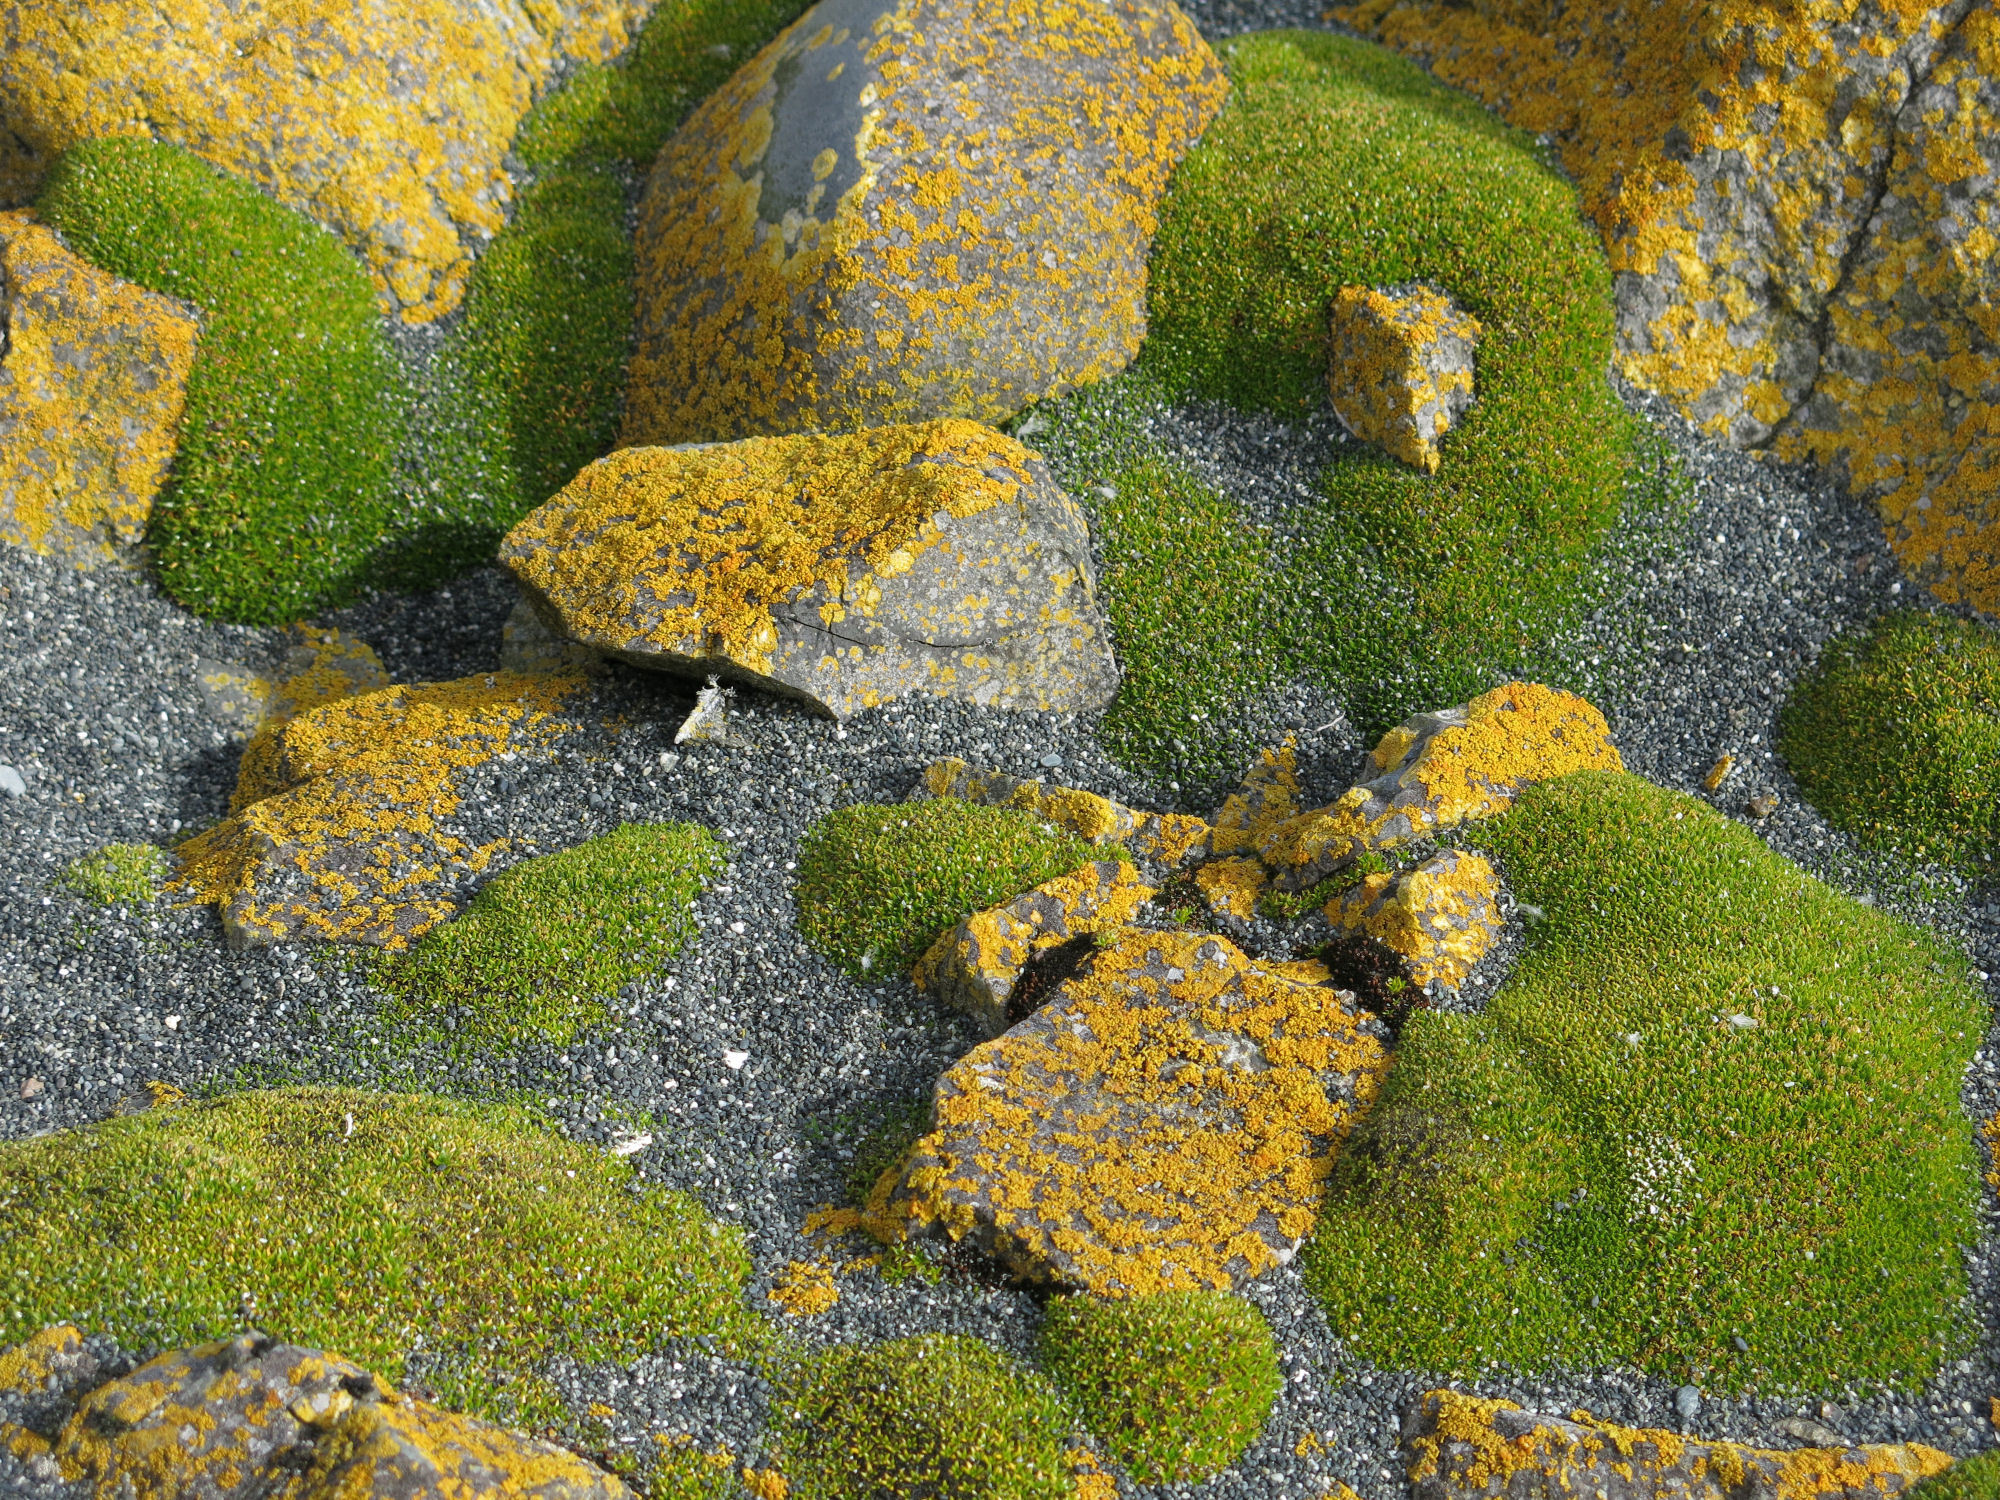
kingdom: Plantae
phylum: Tracheophyta
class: Magnoliopsida
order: Caryophyllales
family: Caryophyllaceae
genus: Colobanthus
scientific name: Colobanthus muscoides
